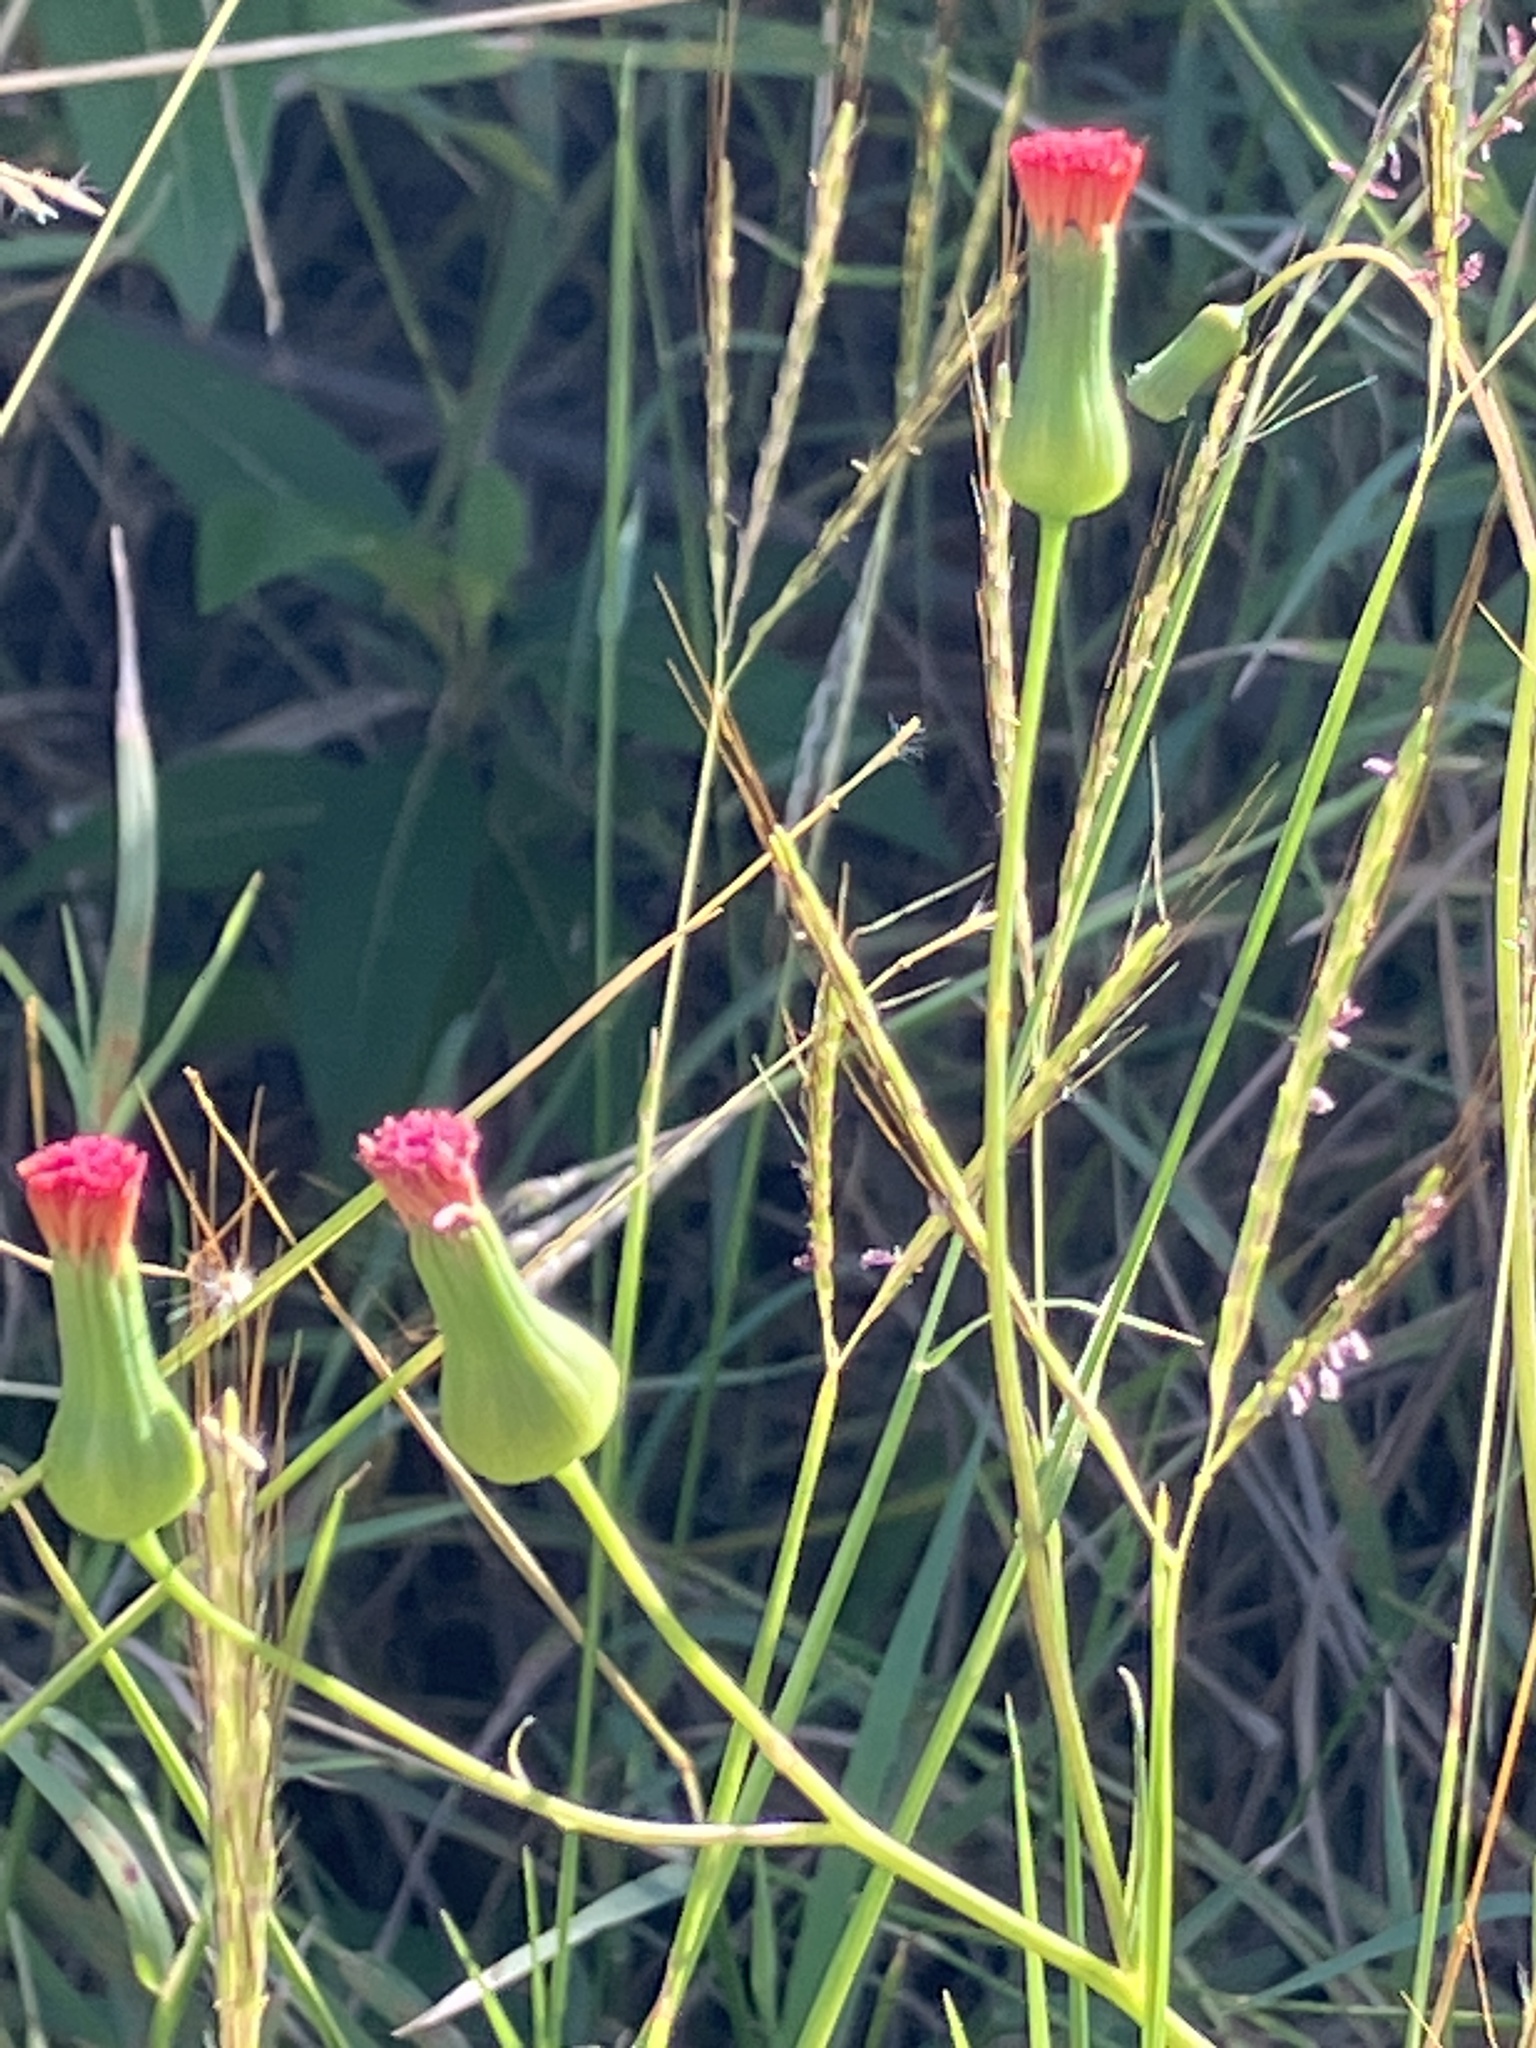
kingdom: Plantae
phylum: Tracheophyta
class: Magnoliopsida
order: Asterales
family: Asteraceae
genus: Emilia
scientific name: Emilia fosbergii
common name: Florida tasselflower
